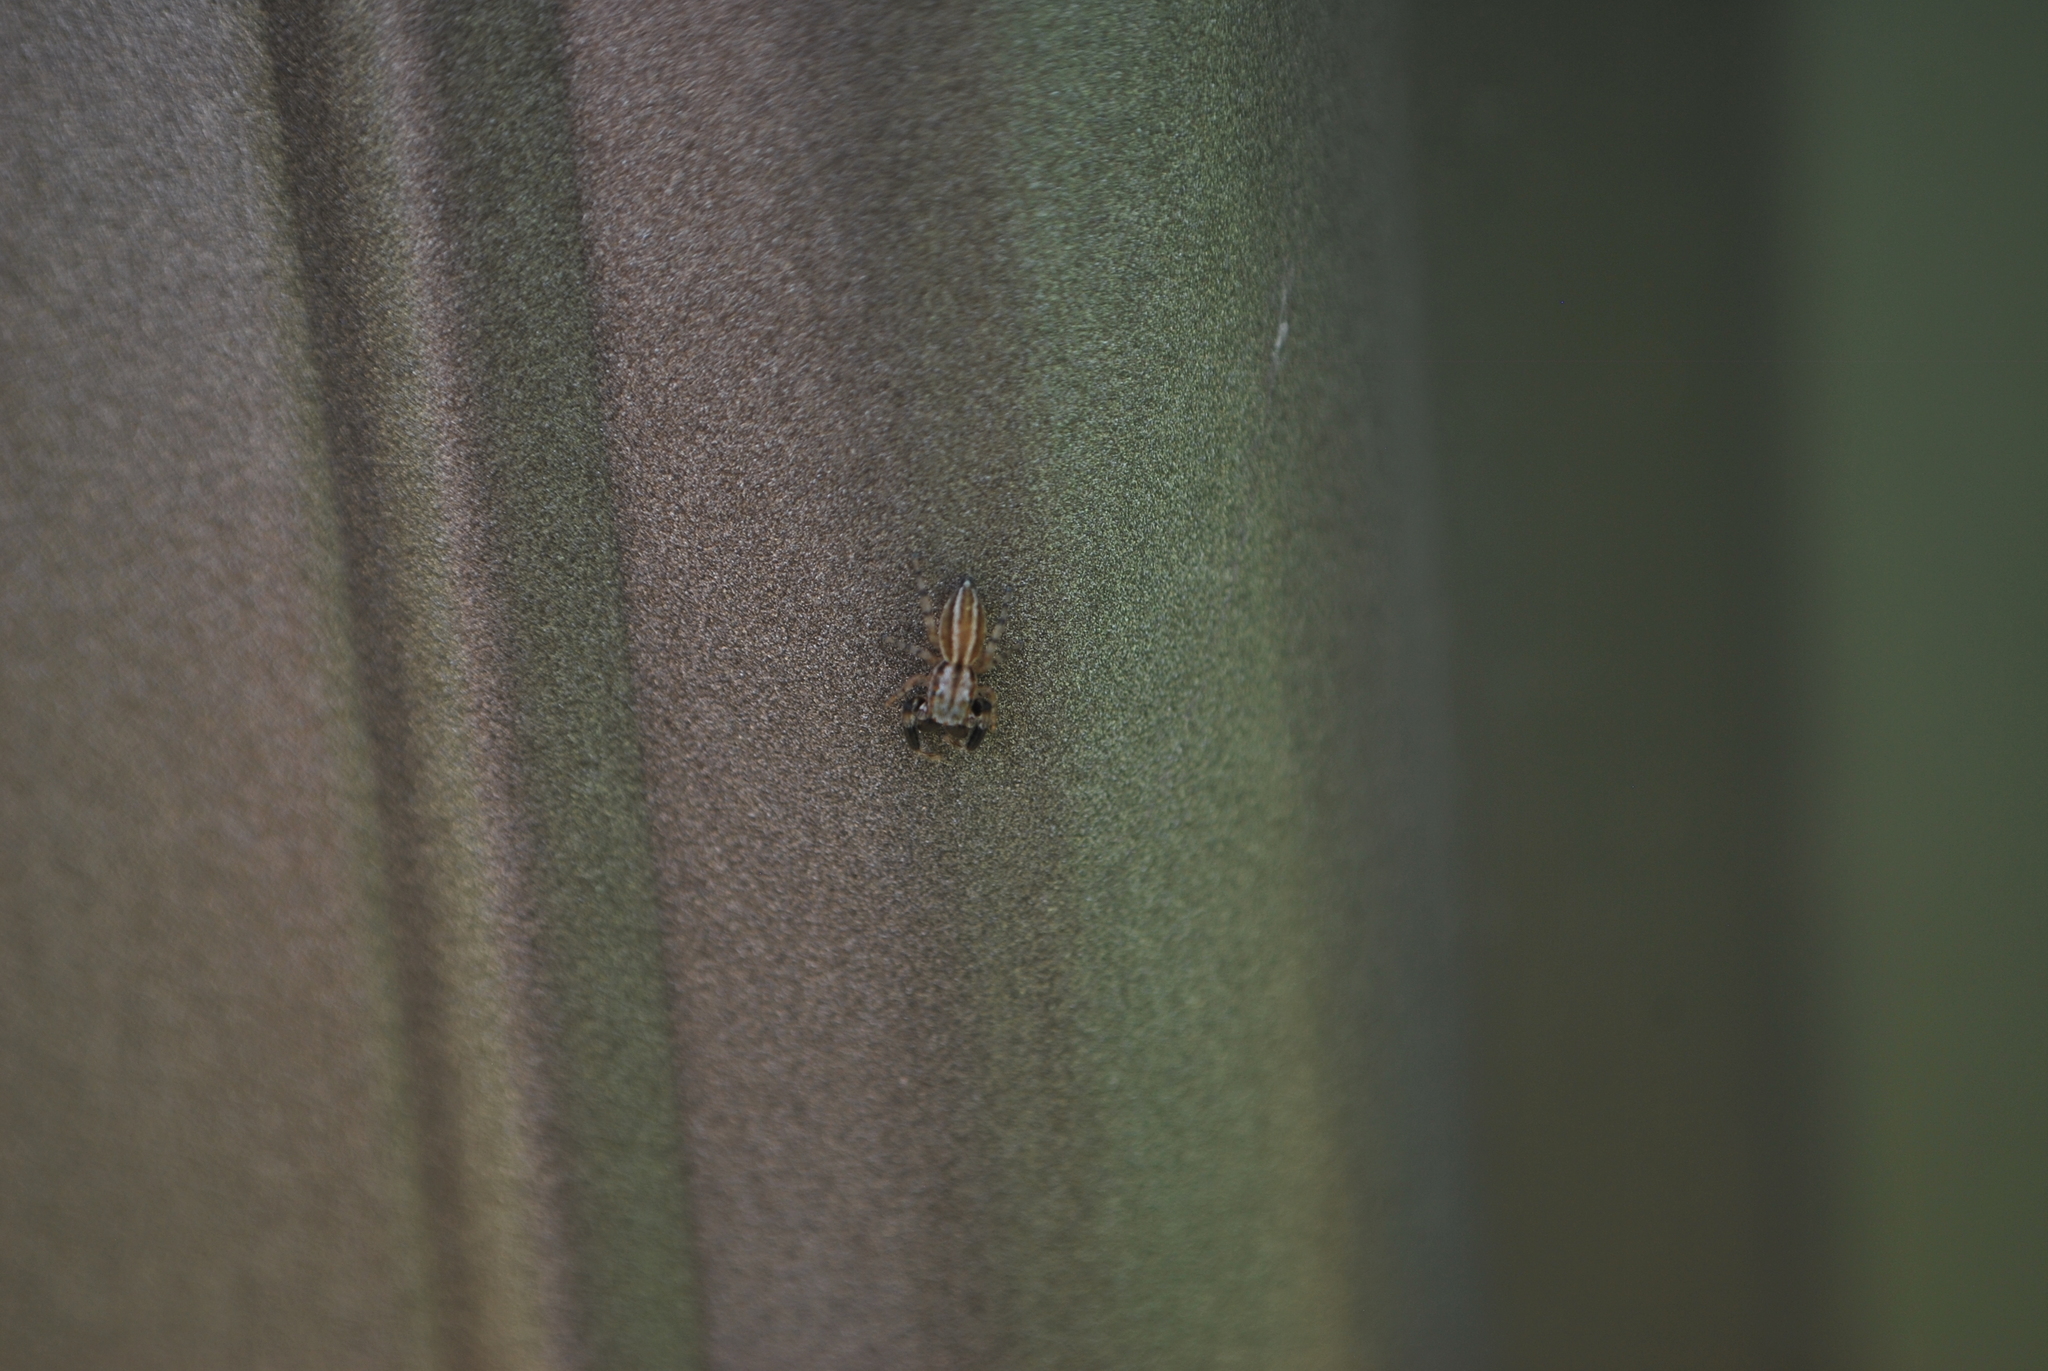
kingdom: Animalia
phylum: Arthropoda
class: Arachnida
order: Araneae
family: Salticidae
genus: Marpissa
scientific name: Marpissa lineata
